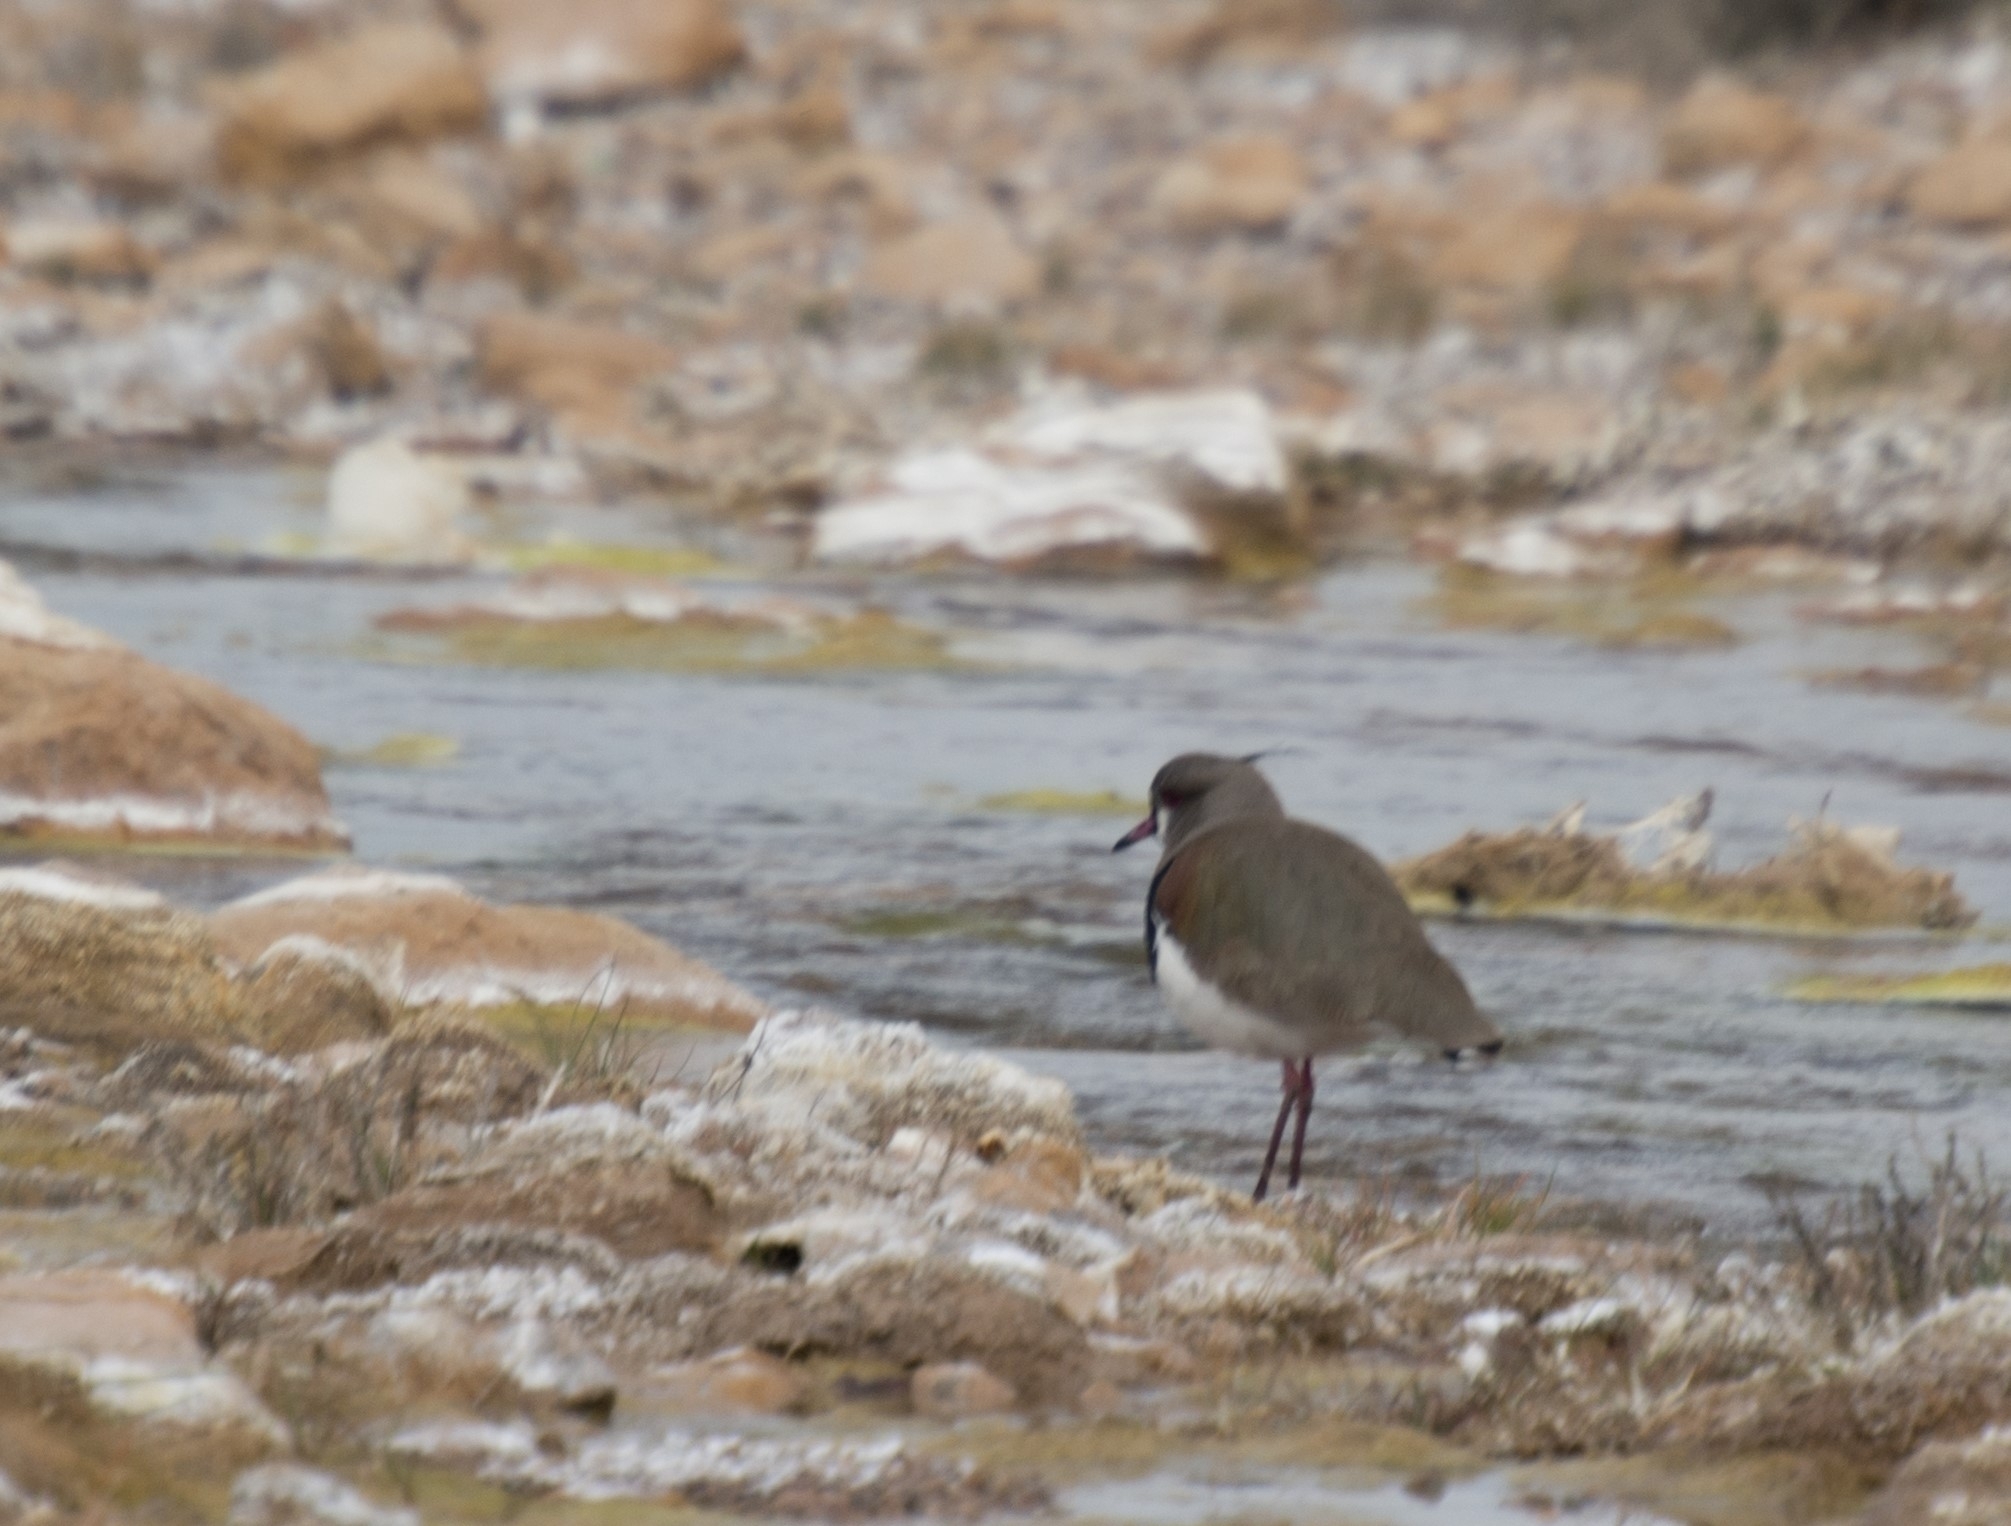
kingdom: Animalia
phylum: Chordata
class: Aves
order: Charadriiformes
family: Charadriidae
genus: Vanellus
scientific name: Vanellus chilensis
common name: Southern lapwing
